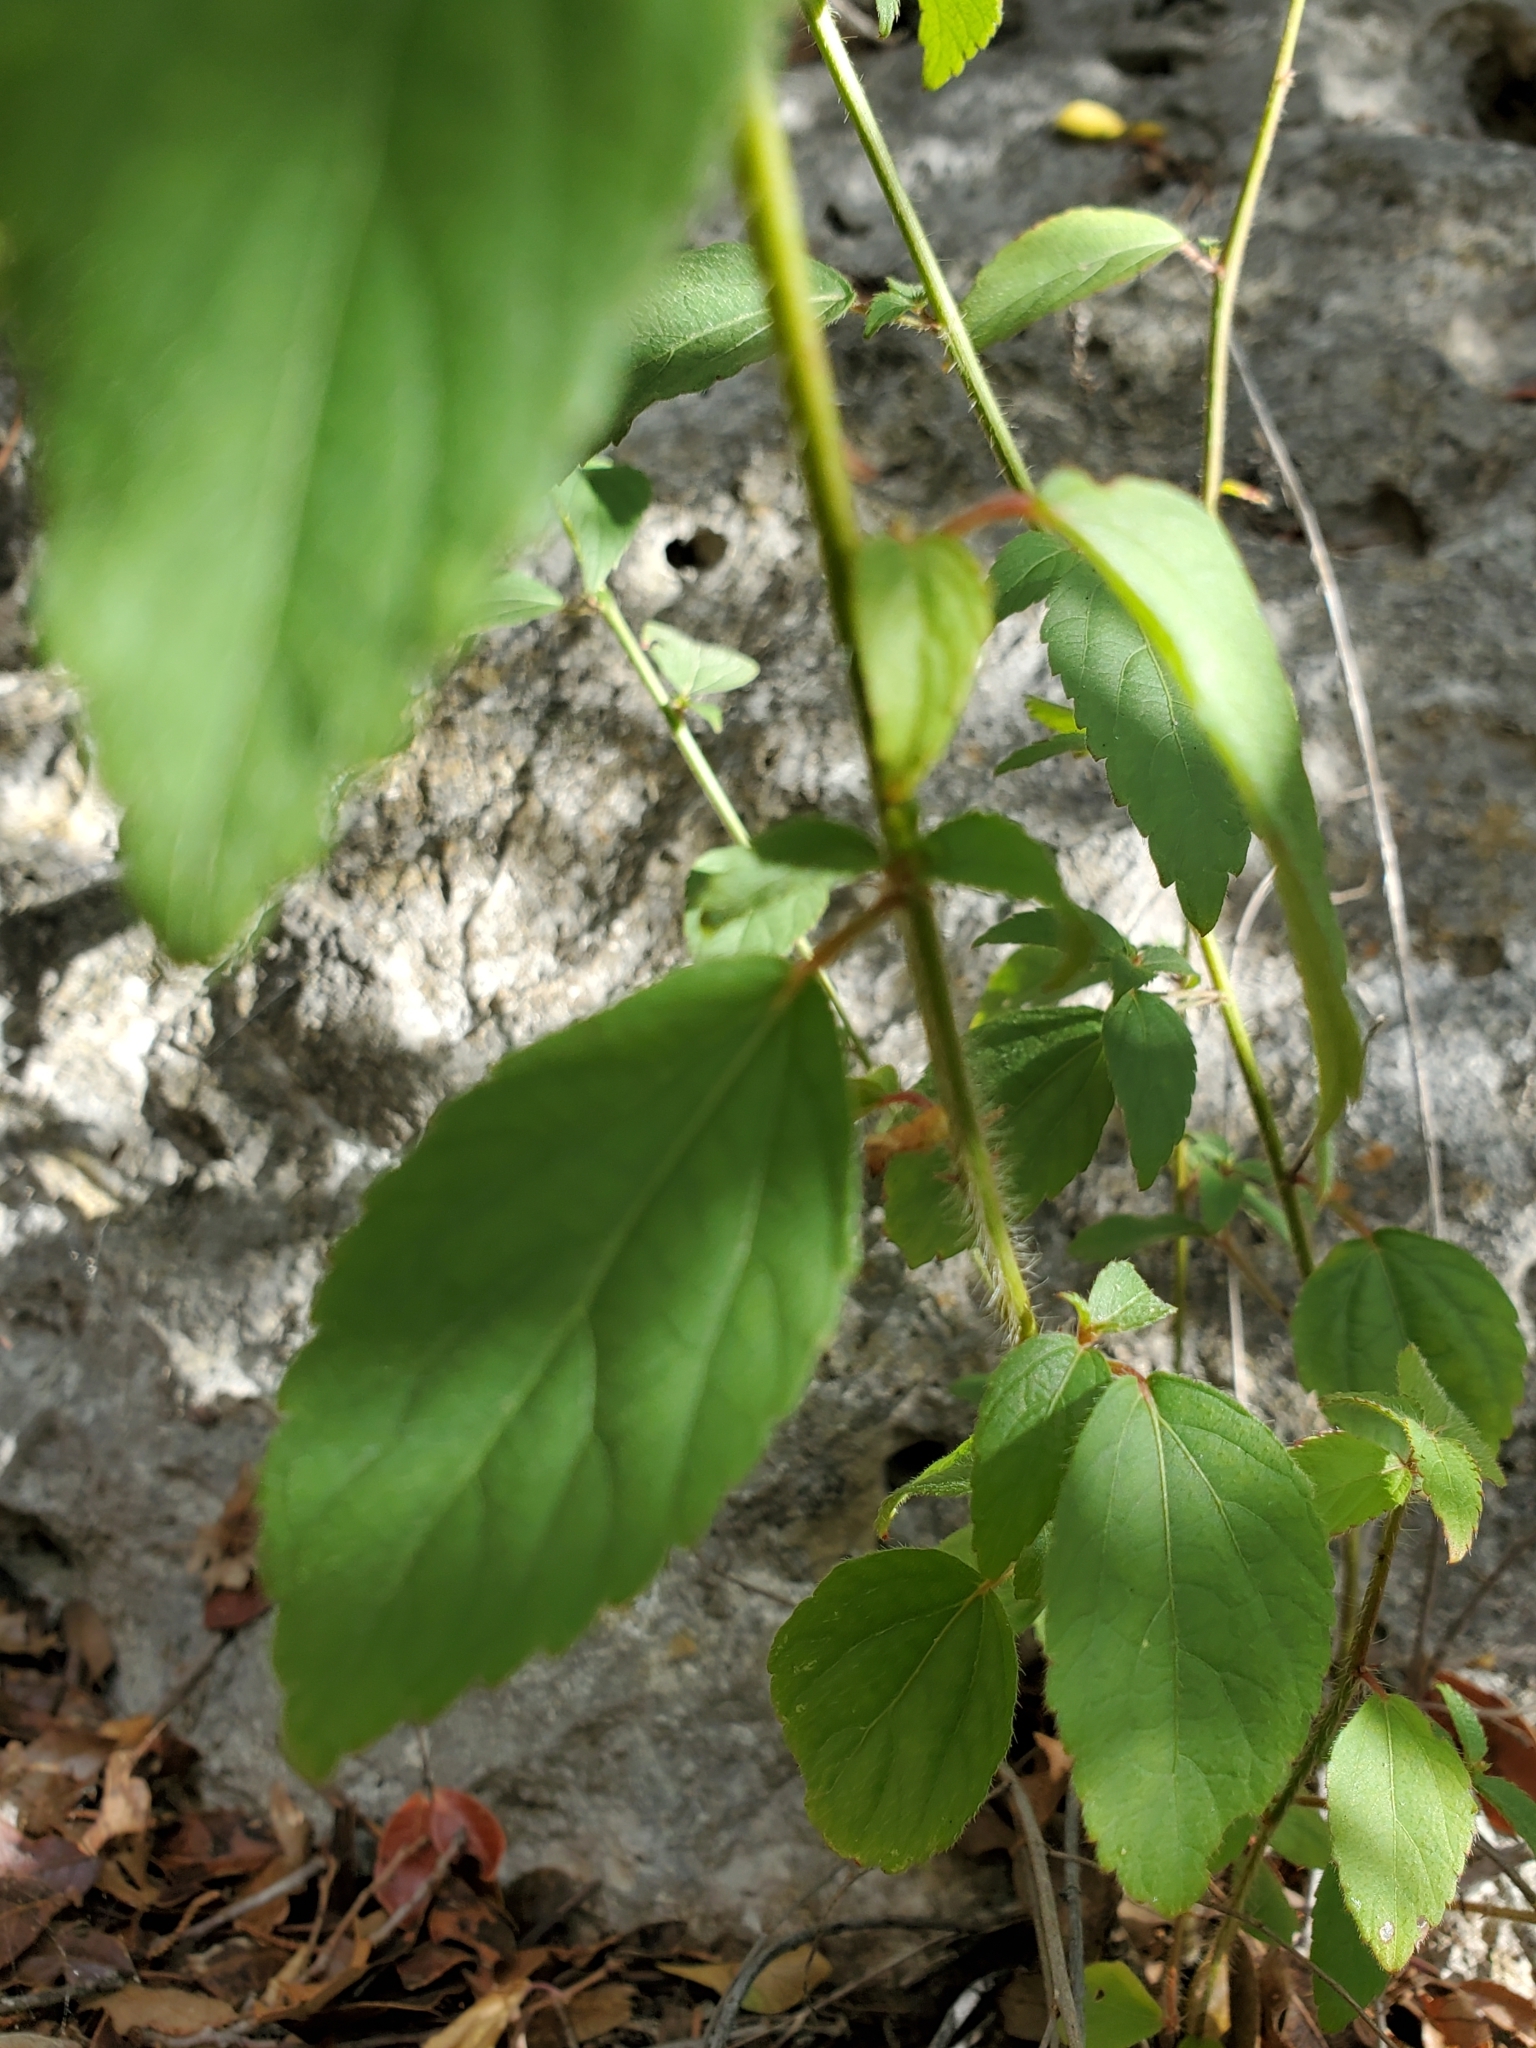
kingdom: Plantae
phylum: Tracheophyta
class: Magnoliopsida
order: Malpighiales
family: Euphorbiaceae
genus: Acalypha
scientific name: Acalypha phleoides
